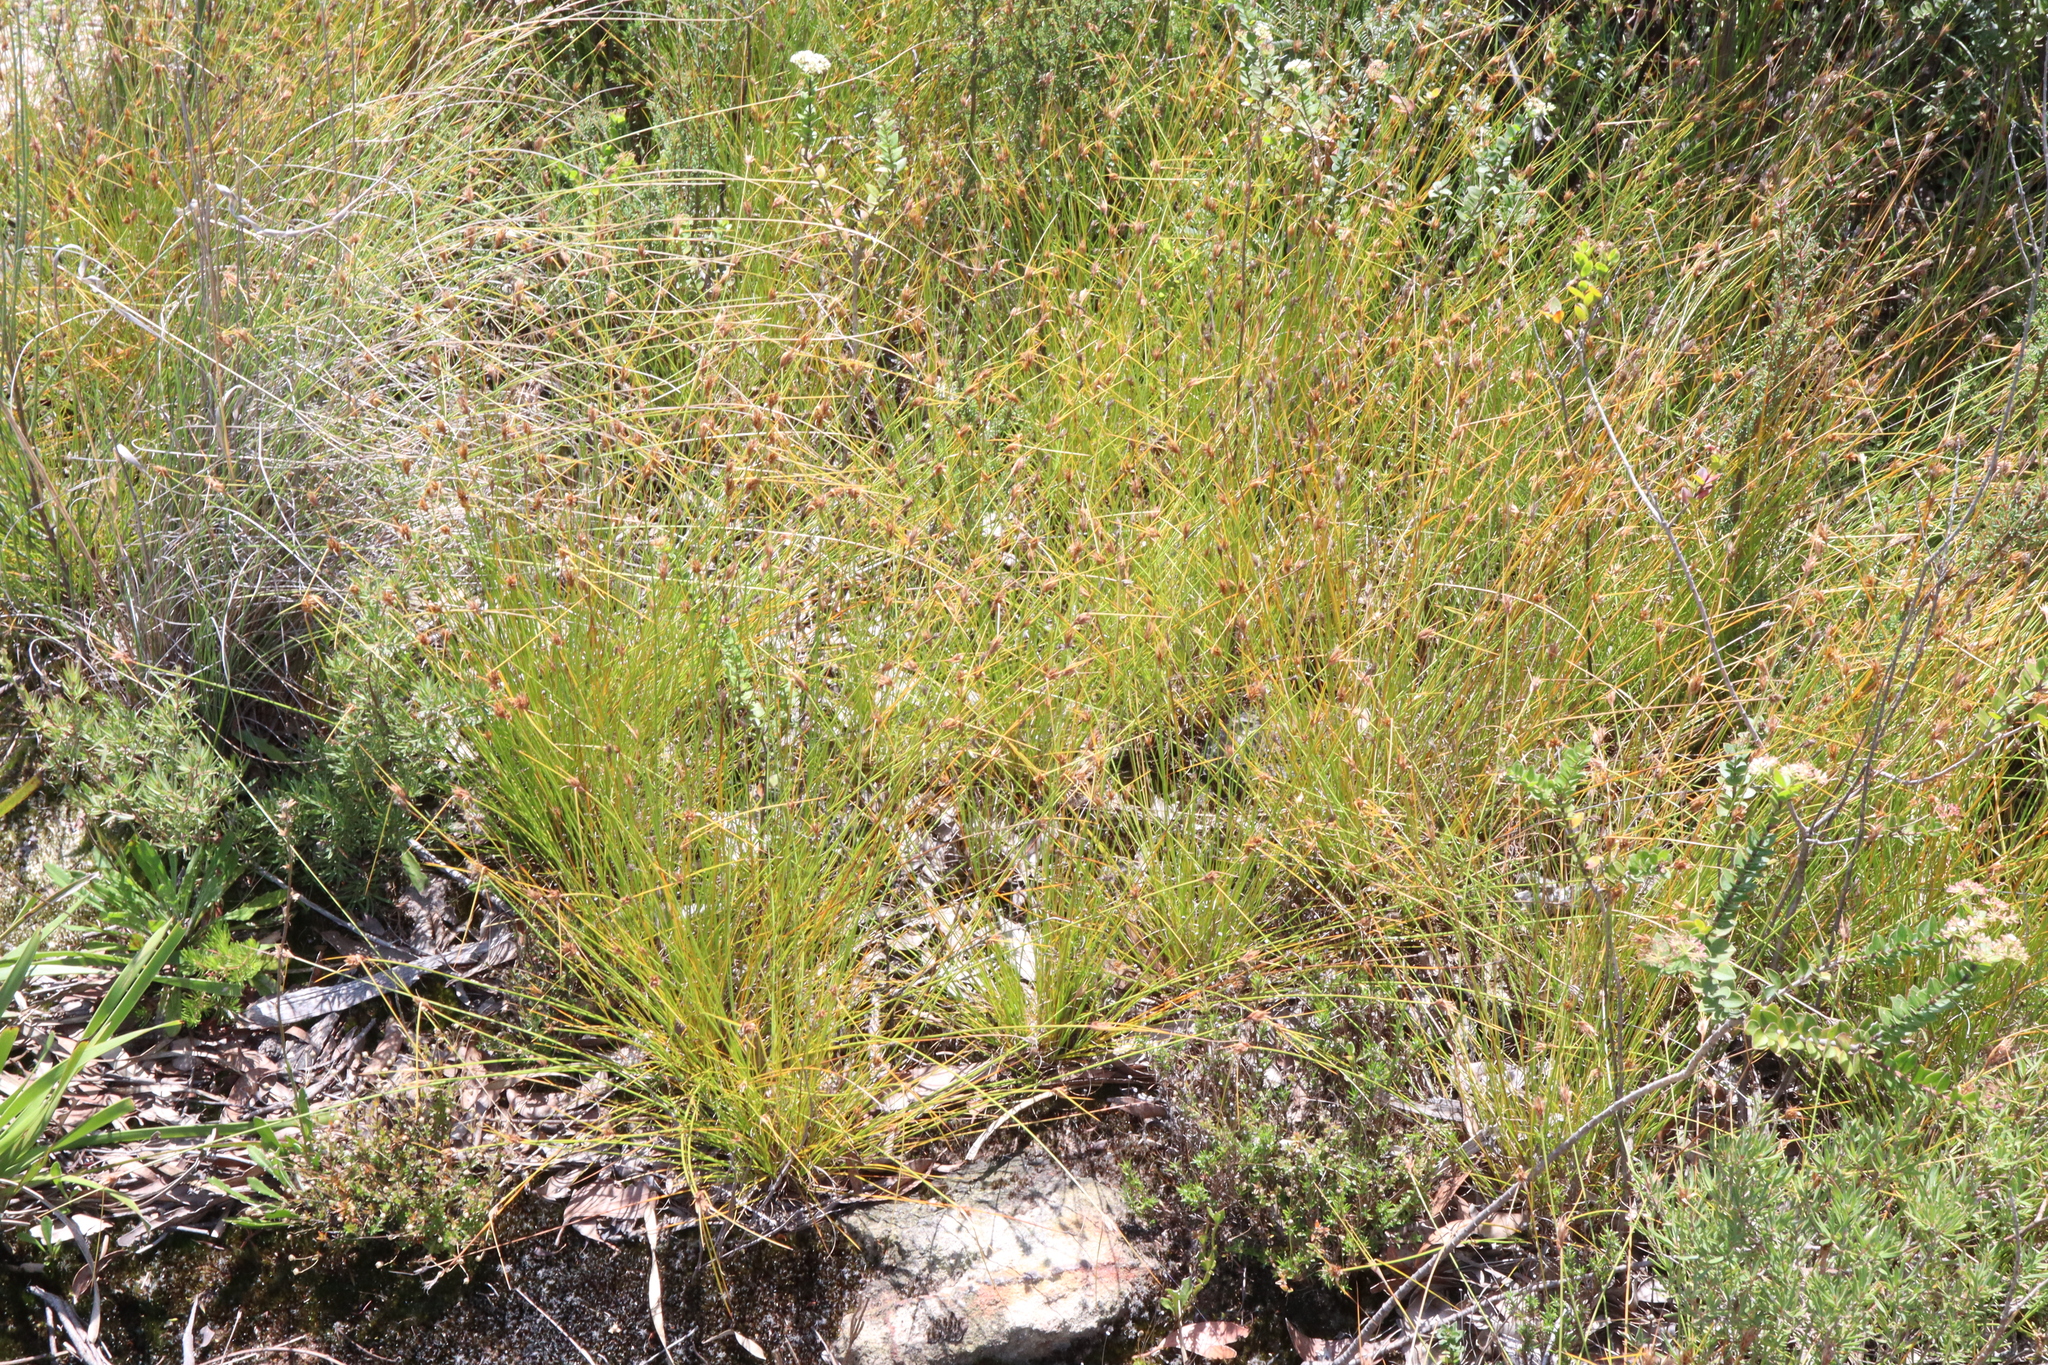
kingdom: Plantae
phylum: Tracheophyta
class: Liliopsida
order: Poales
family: Cyperaceae
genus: Schoenus
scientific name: Schoenus turbinatus
